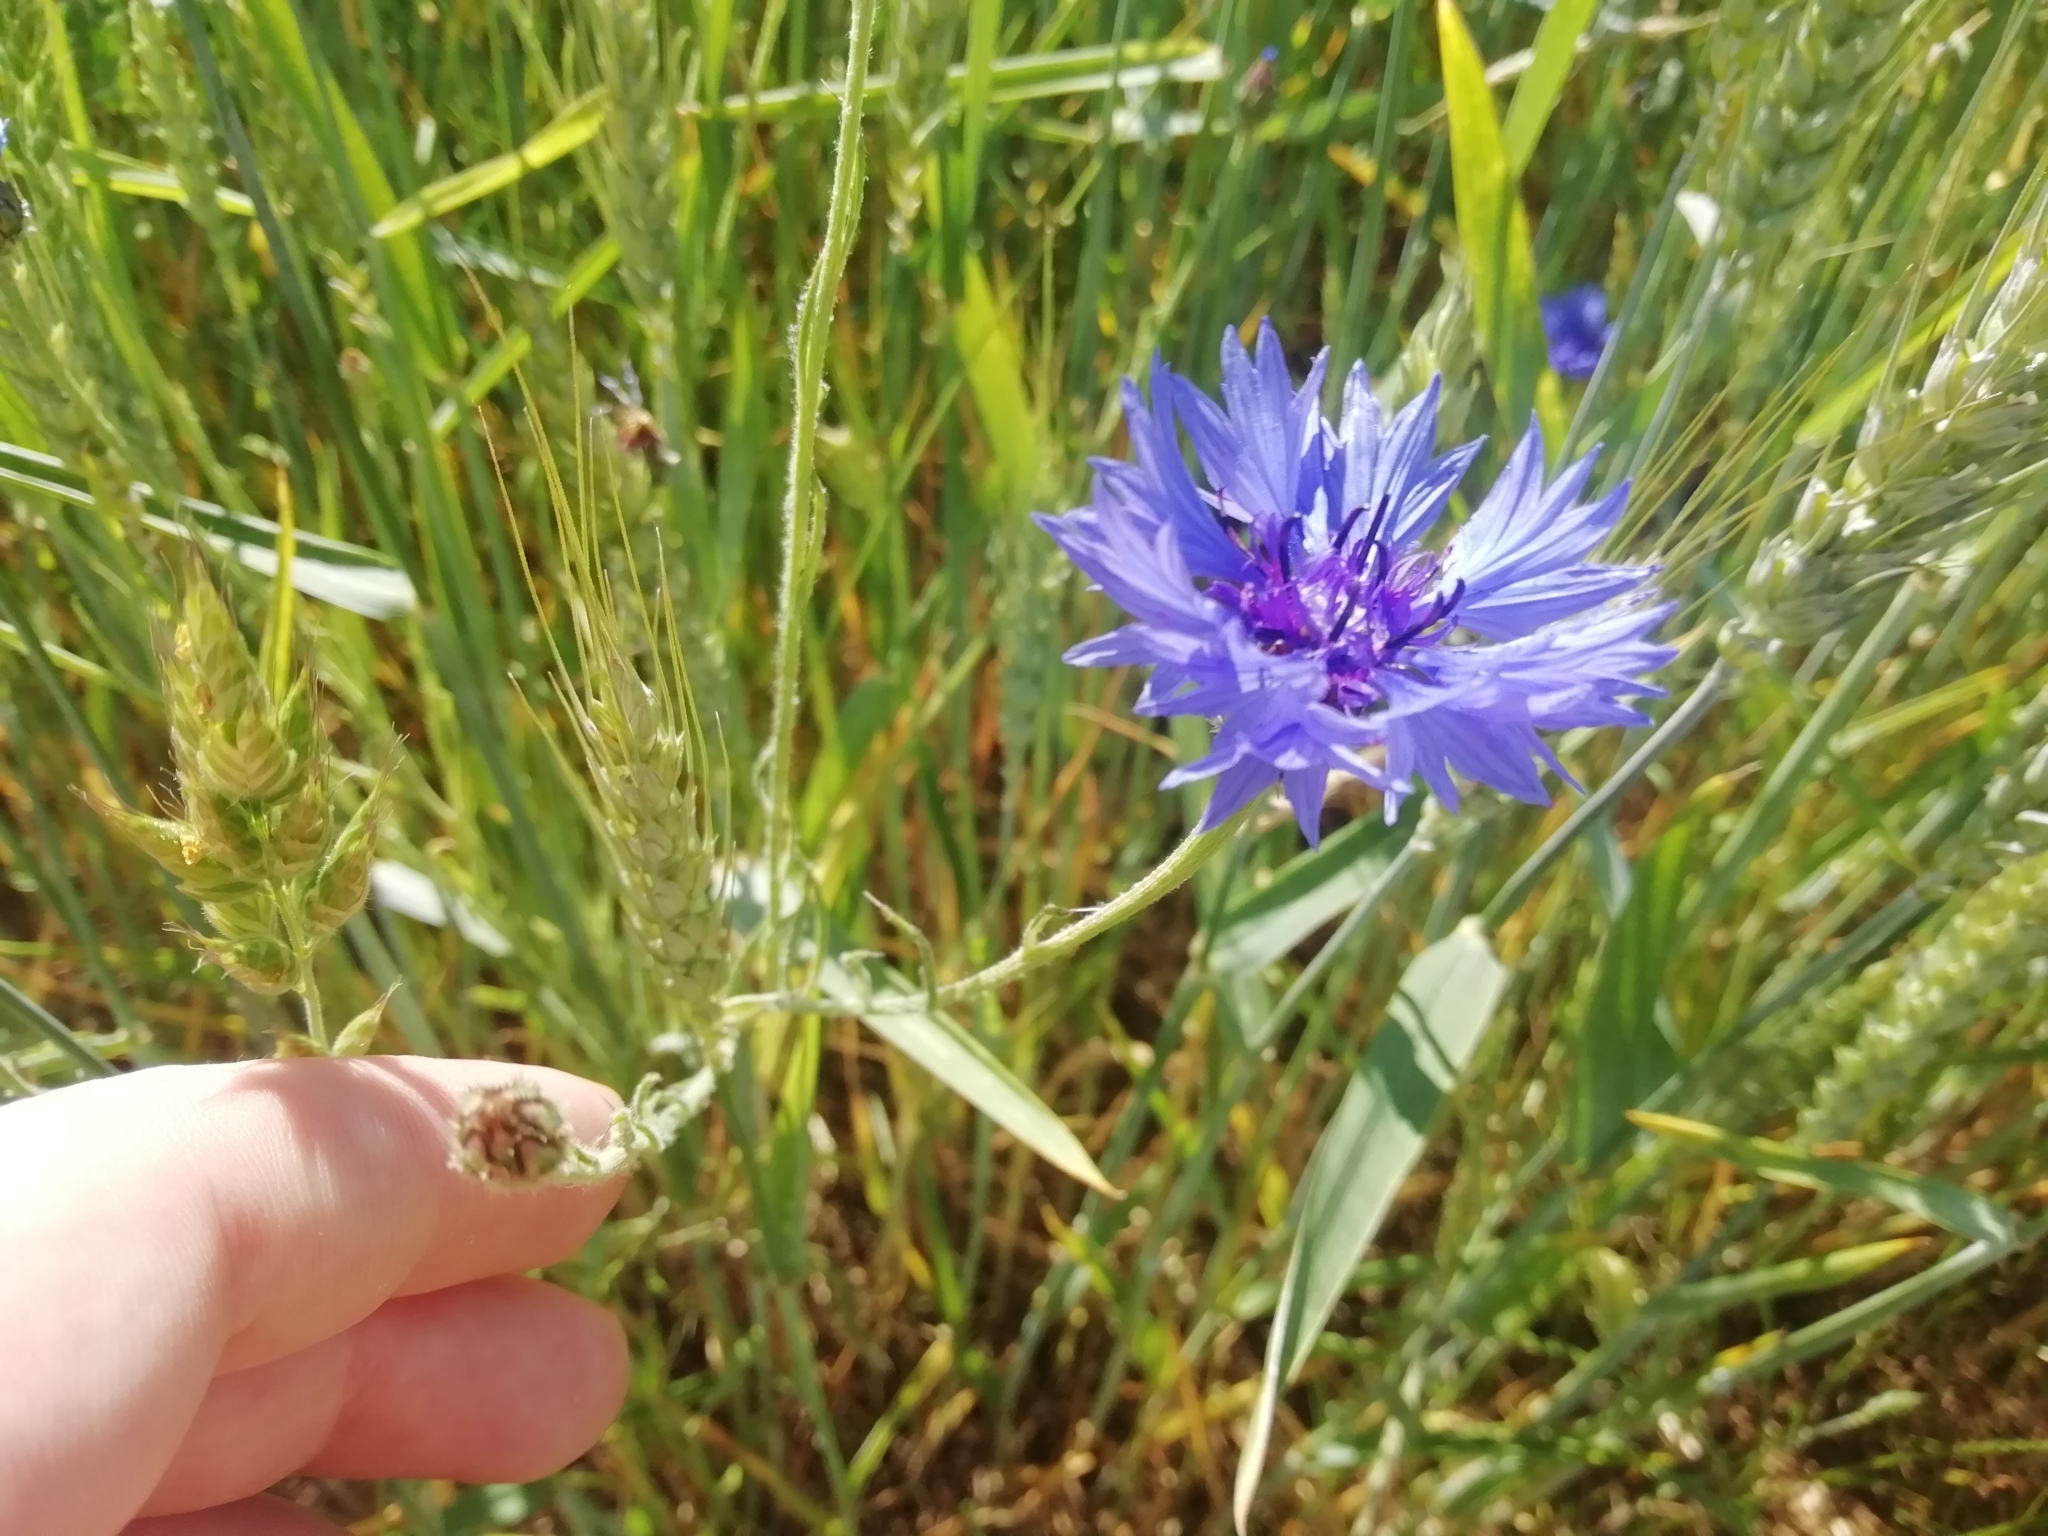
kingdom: Plantae
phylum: Tracheophyta
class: Magnoliopsida
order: Asterales
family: Asteraceae
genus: Centaurea
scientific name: Centaurea cyanus
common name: Cornflower
